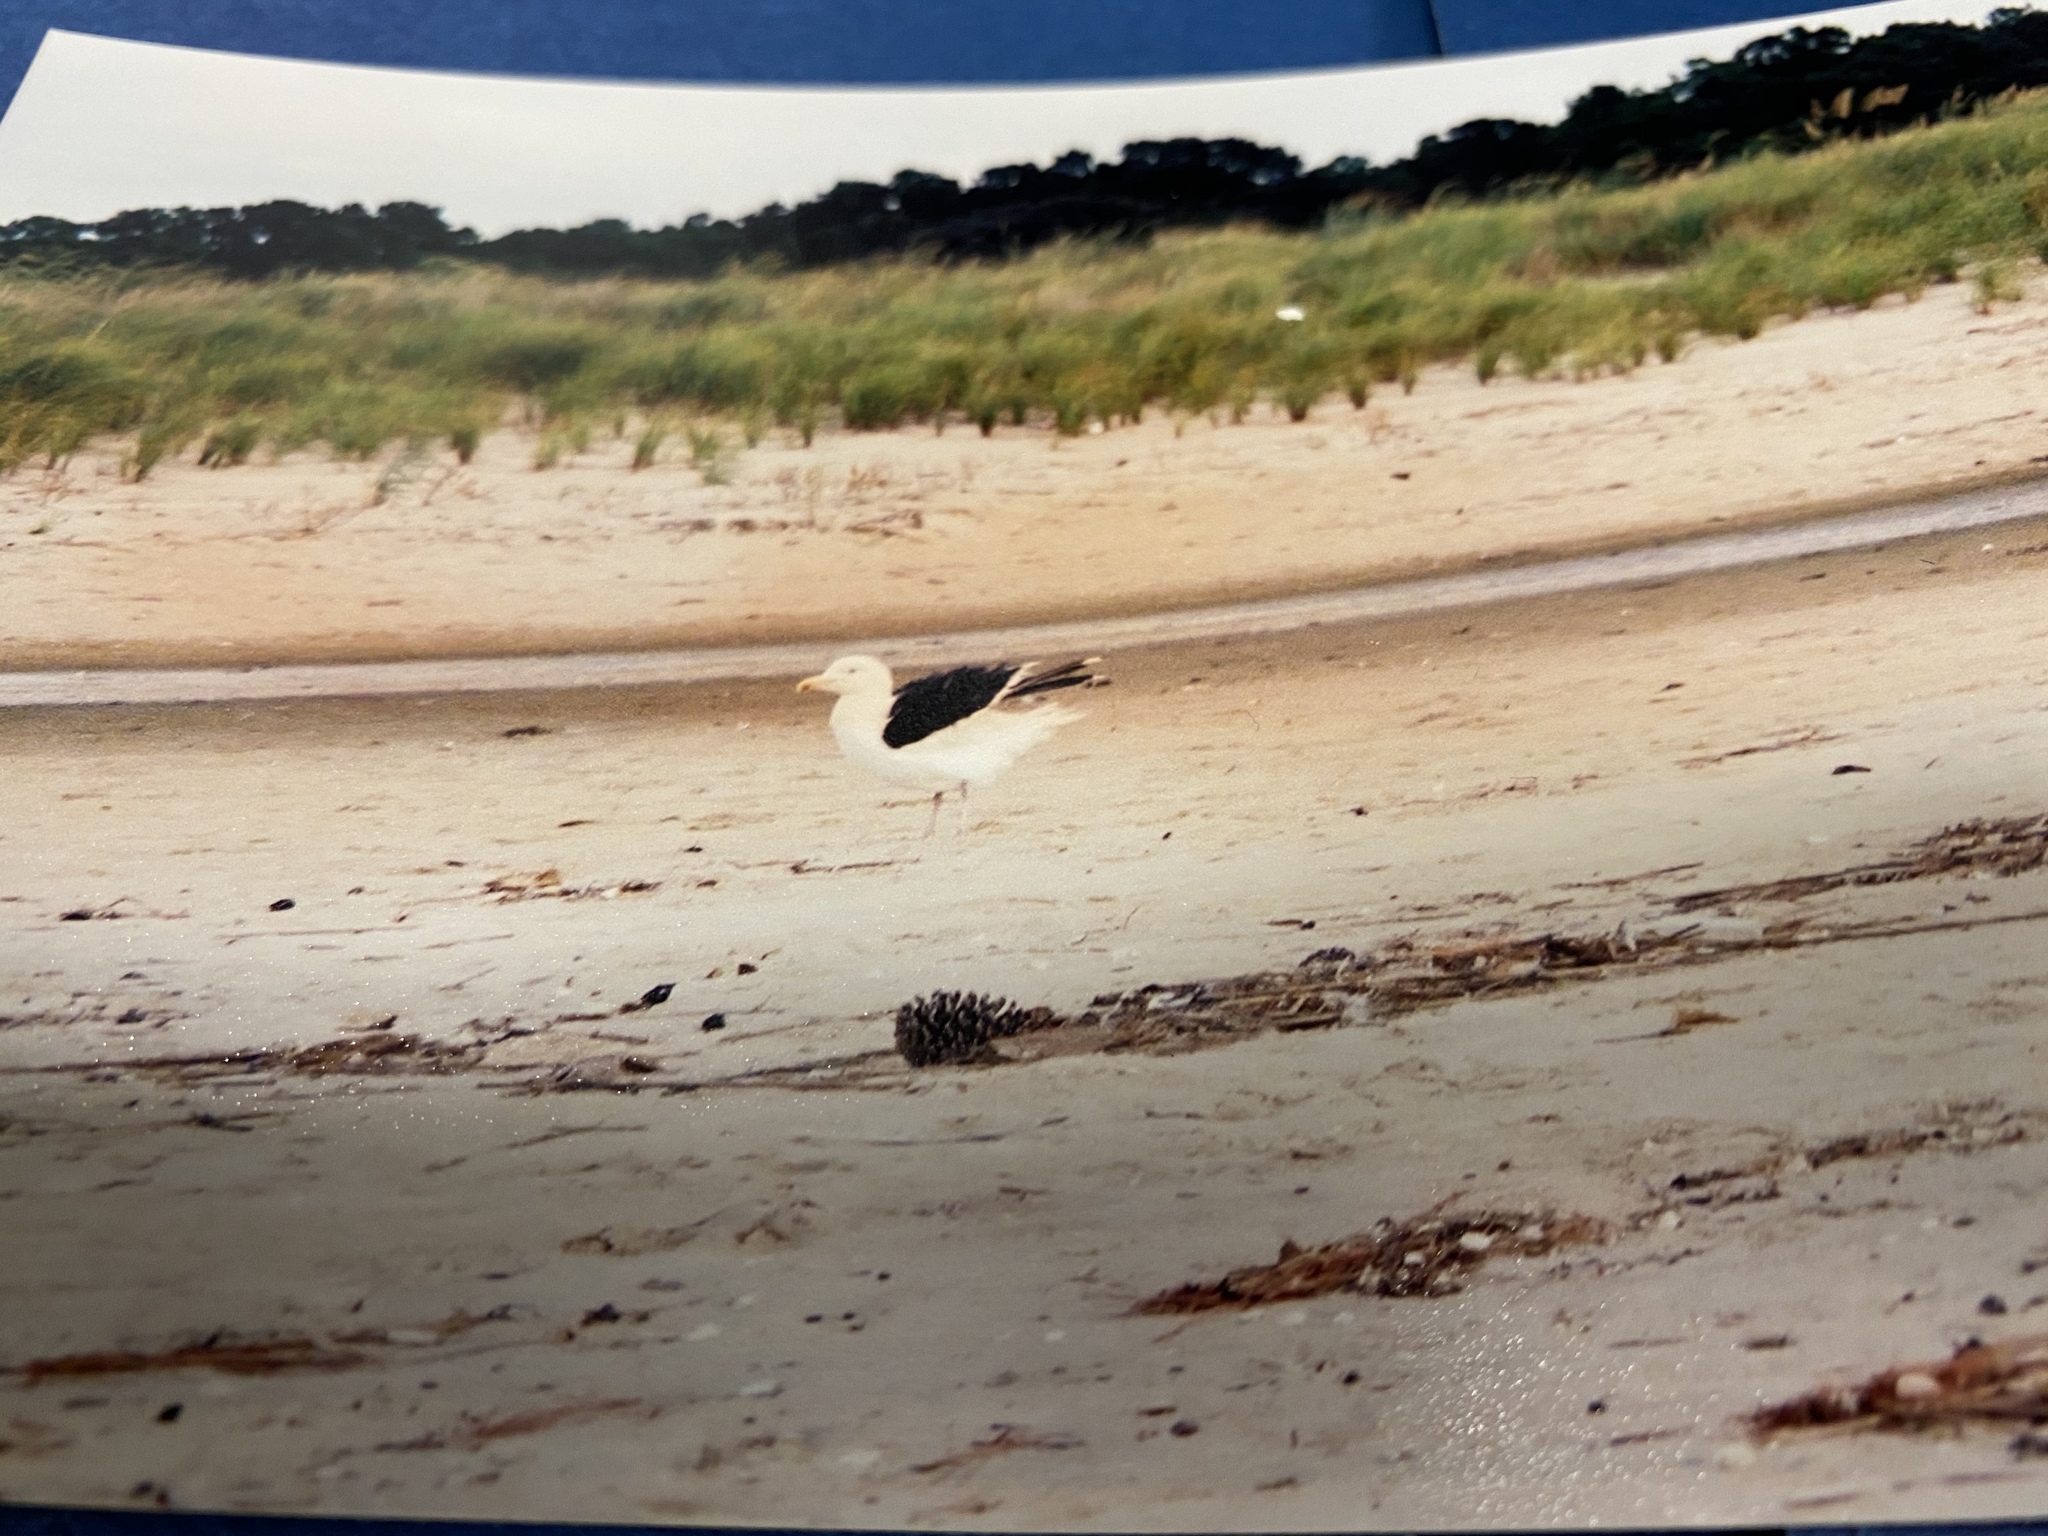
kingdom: Animalia
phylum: Chordata
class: Aves
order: Charadriiformes
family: Laridae
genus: Larus
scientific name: Larus marinus
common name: Great black-backed gull
